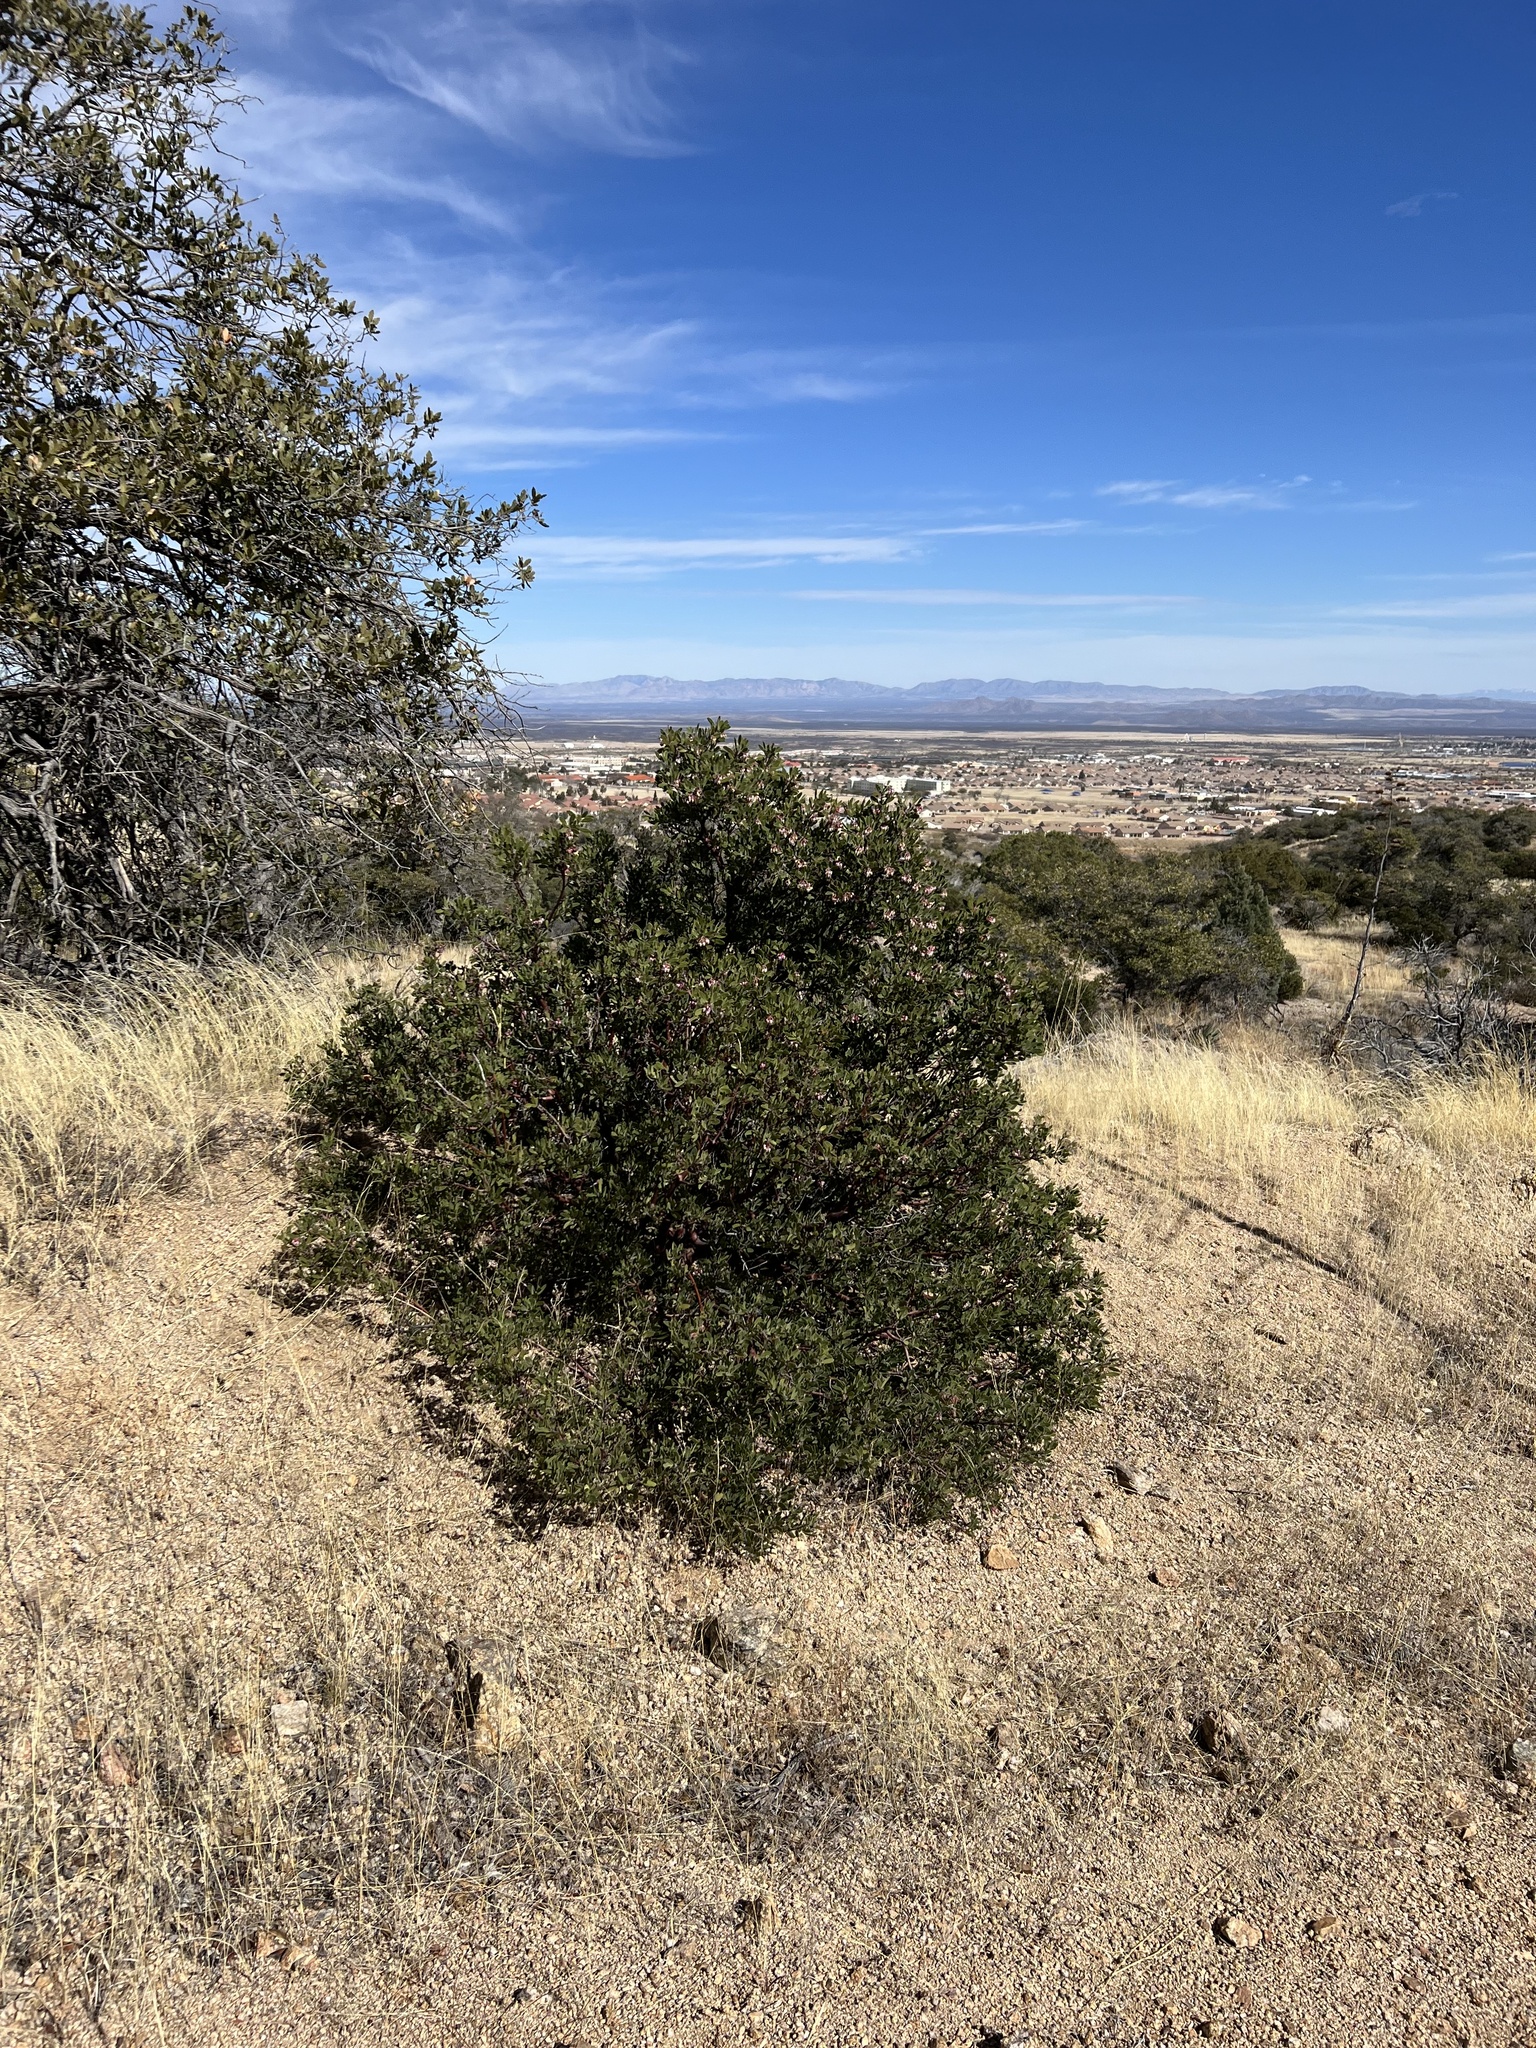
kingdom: Plantae
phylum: Tracheophyta
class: Magnoliopsida
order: Ericales
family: Ericaceae
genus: Arctostaphylos
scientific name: Arctostaphylos pungens
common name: Mexican manzanita
